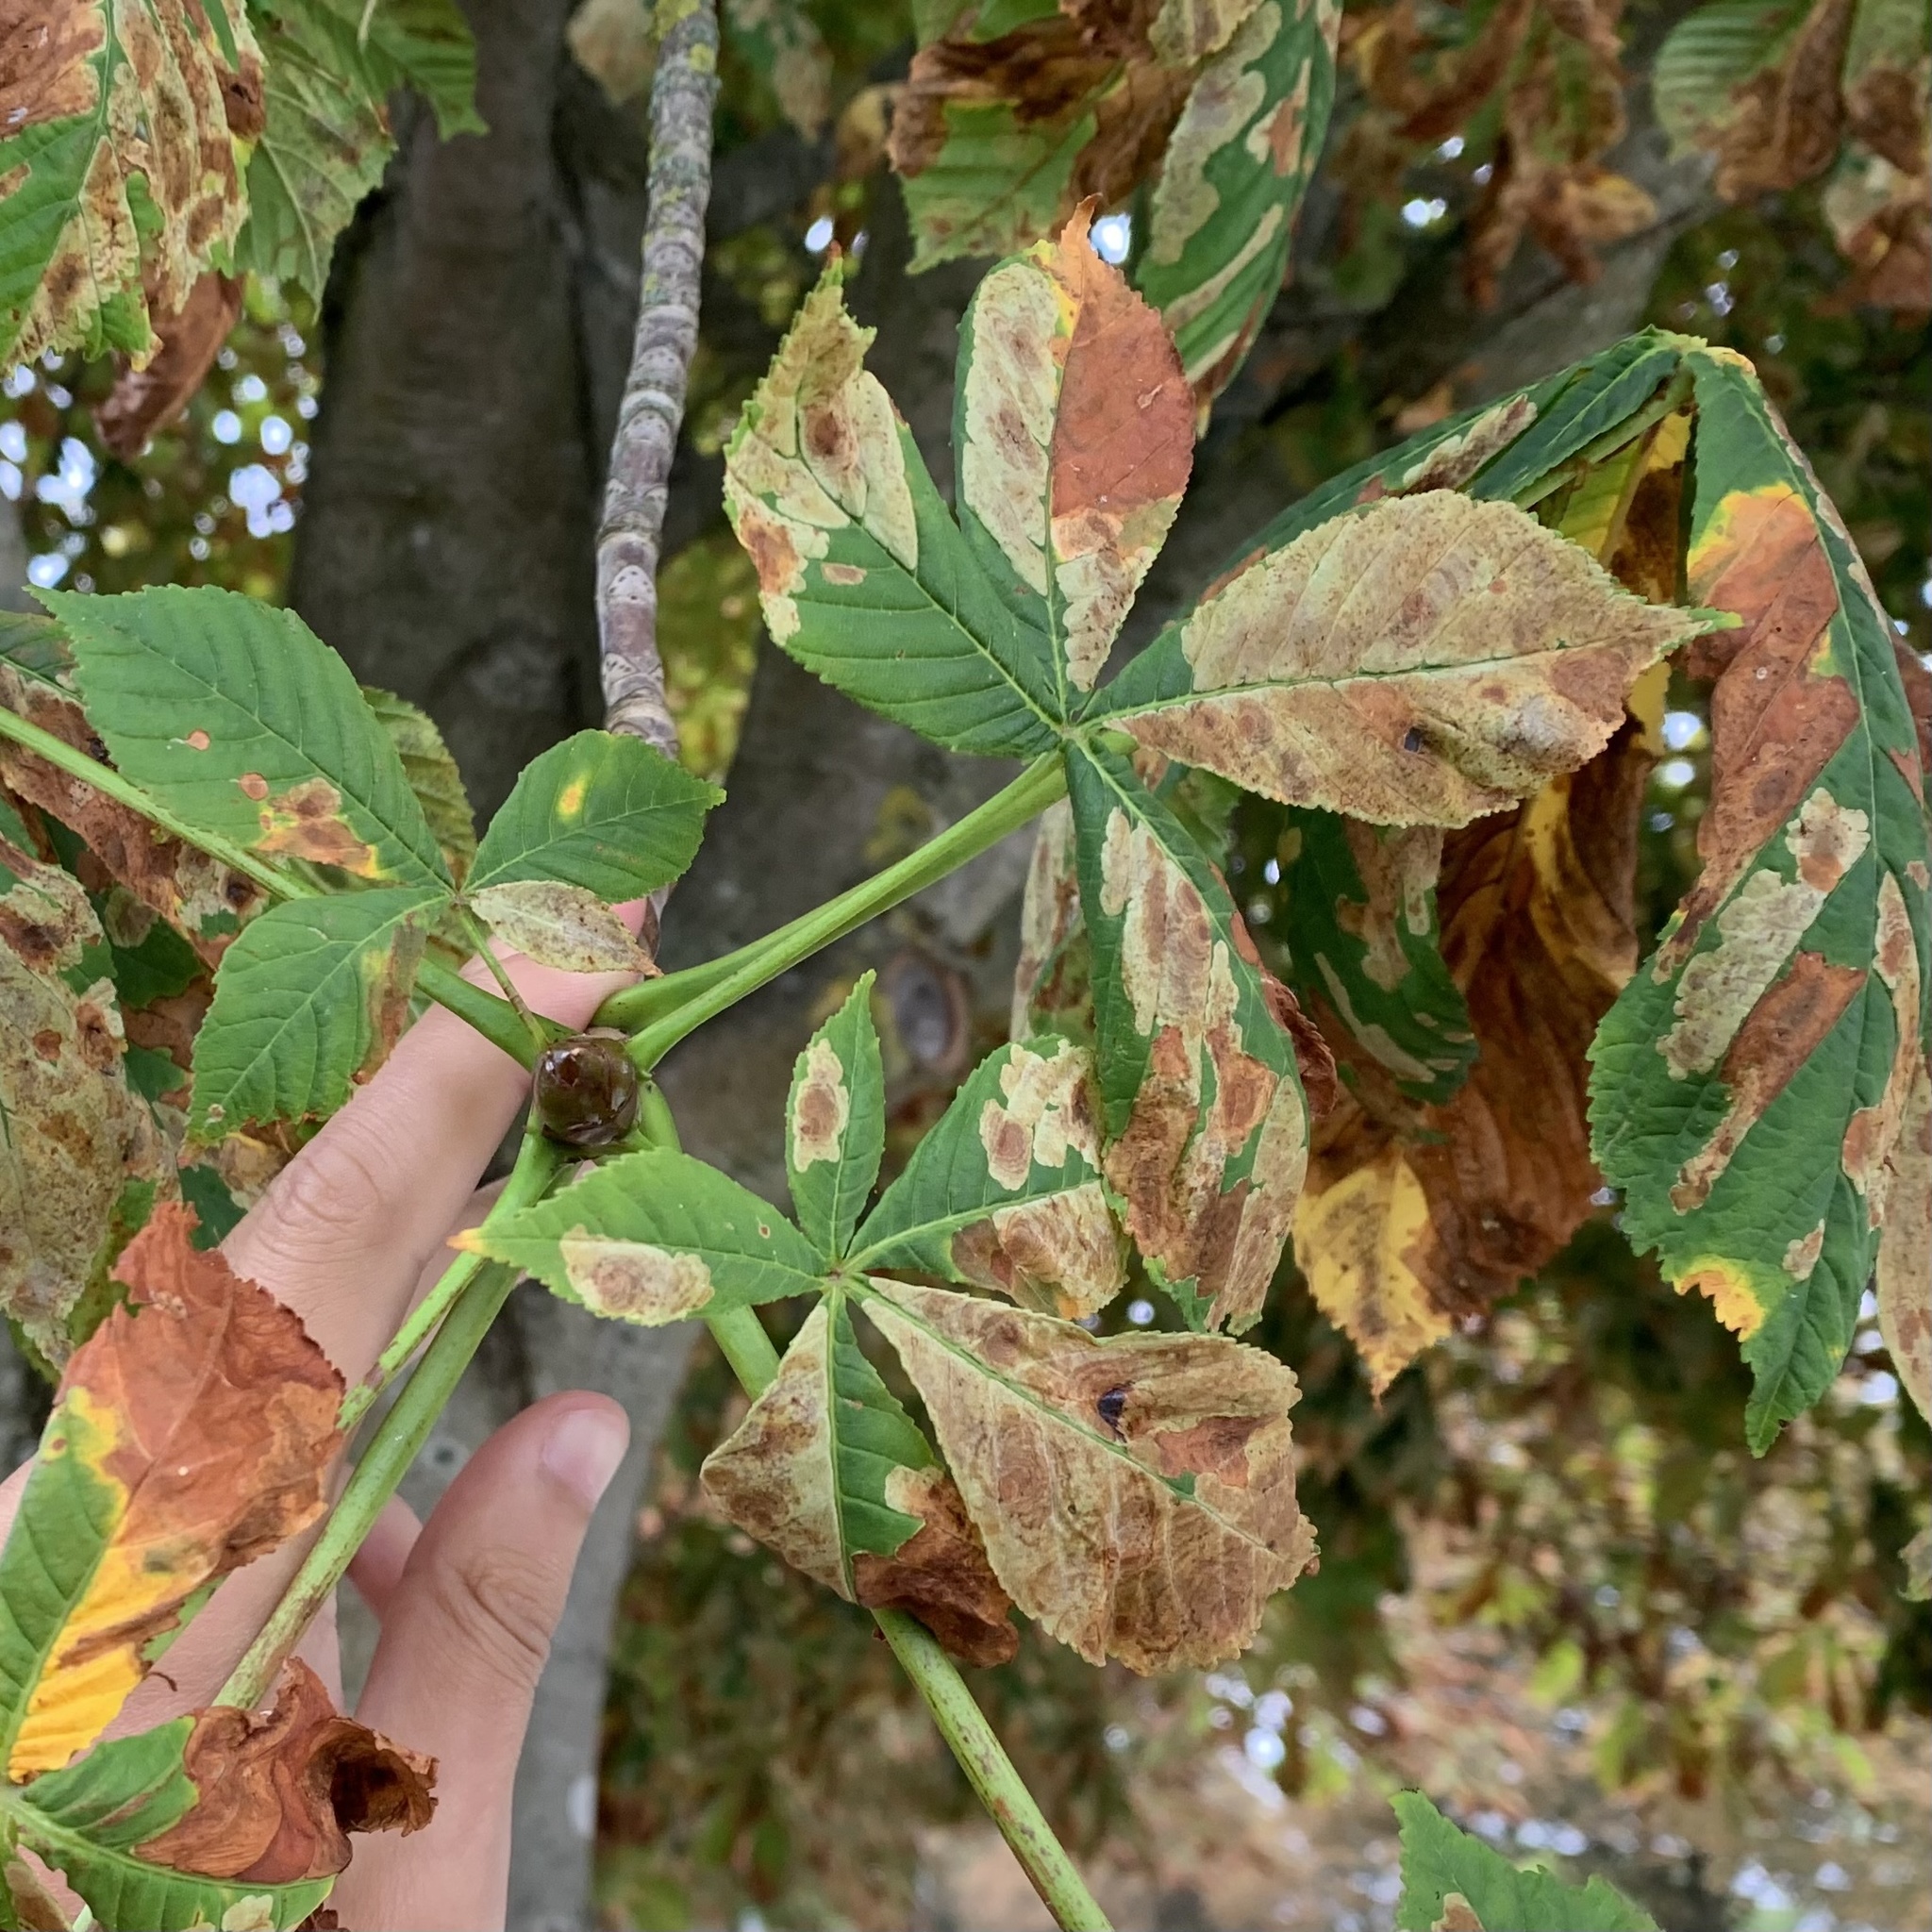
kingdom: Plantae
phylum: Tracheophyta
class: Magnoliopsida
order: Sapindales
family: Sapindaceae
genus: Aesculus
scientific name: Aesculus hippocastanum
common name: Horse-chestnut
